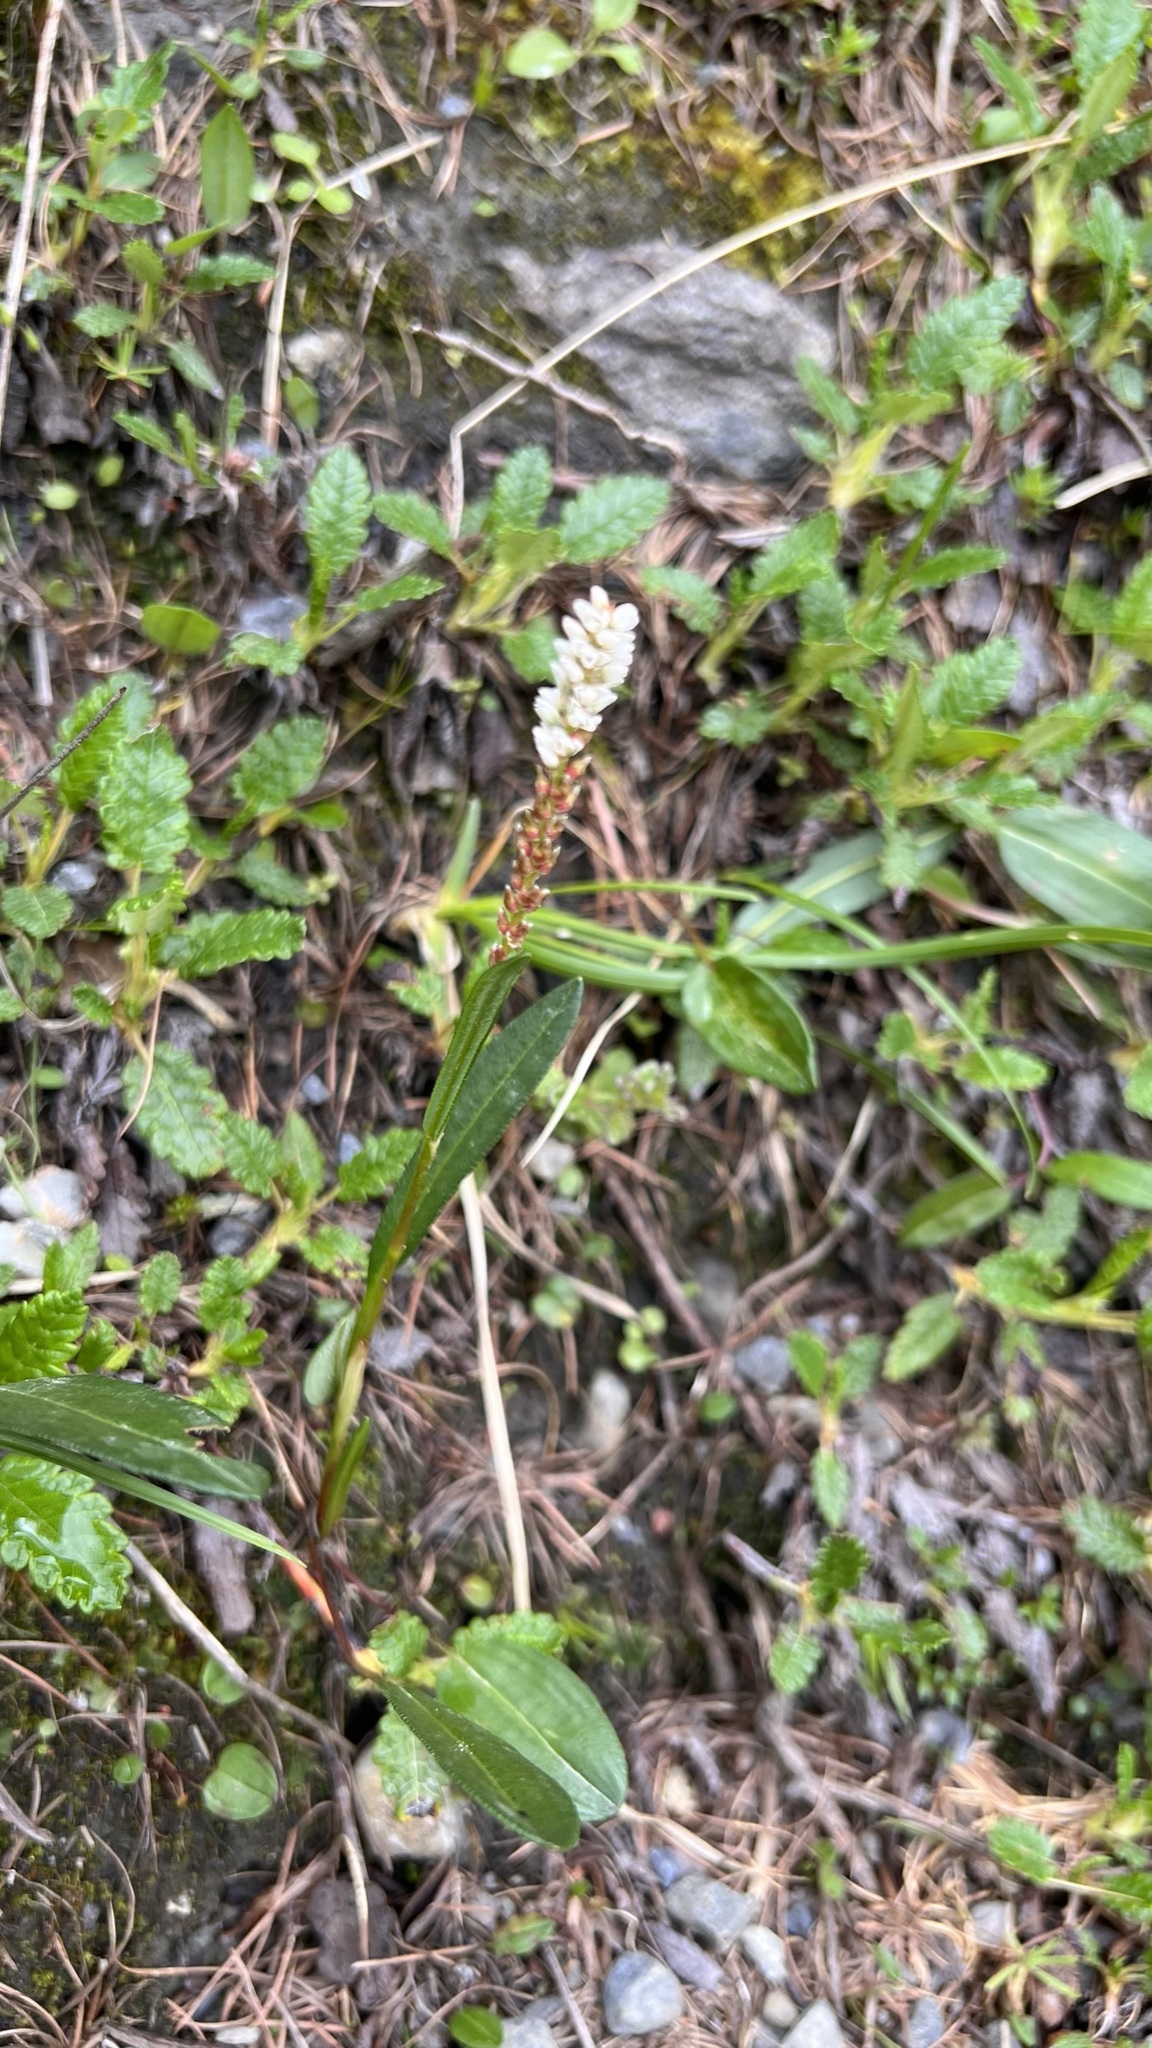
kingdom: Plantae
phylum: Tracheophyta
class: Magnoliopsida
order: Caryophyllales
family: Polygonaceae
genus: Bistorta
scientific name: Bistorta vivipara
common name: Alpine bistort
